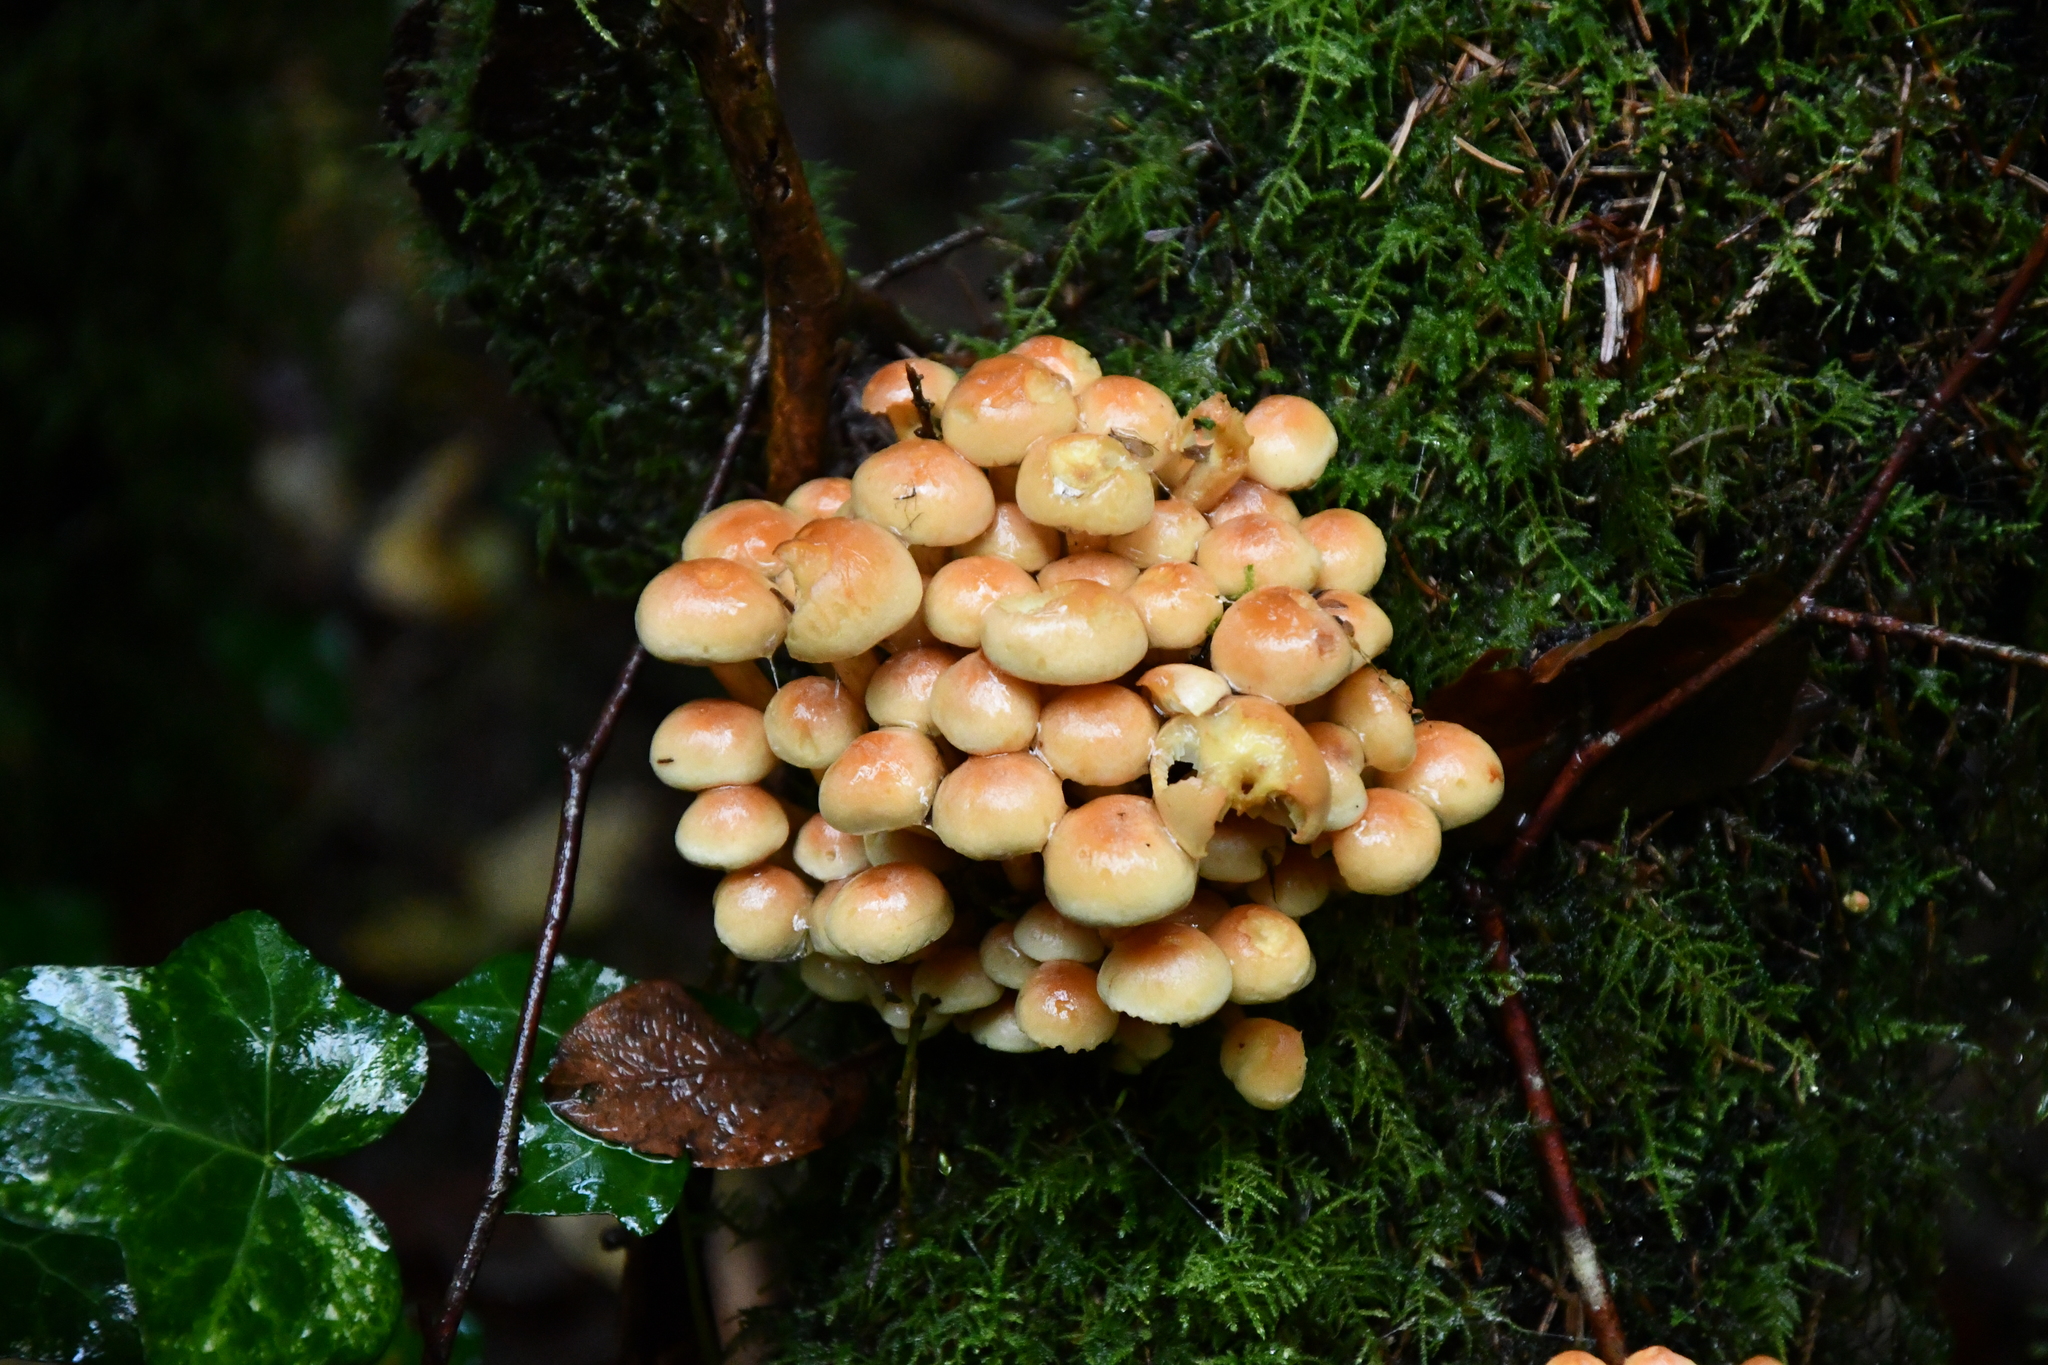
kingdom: Fungi
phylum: Basidiomycota
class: Agaricomycetes
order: Agaricales
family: Strophariaceae
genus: Hypholoma
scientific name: Hypholoma fasciculare
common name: Sulphur tuft
